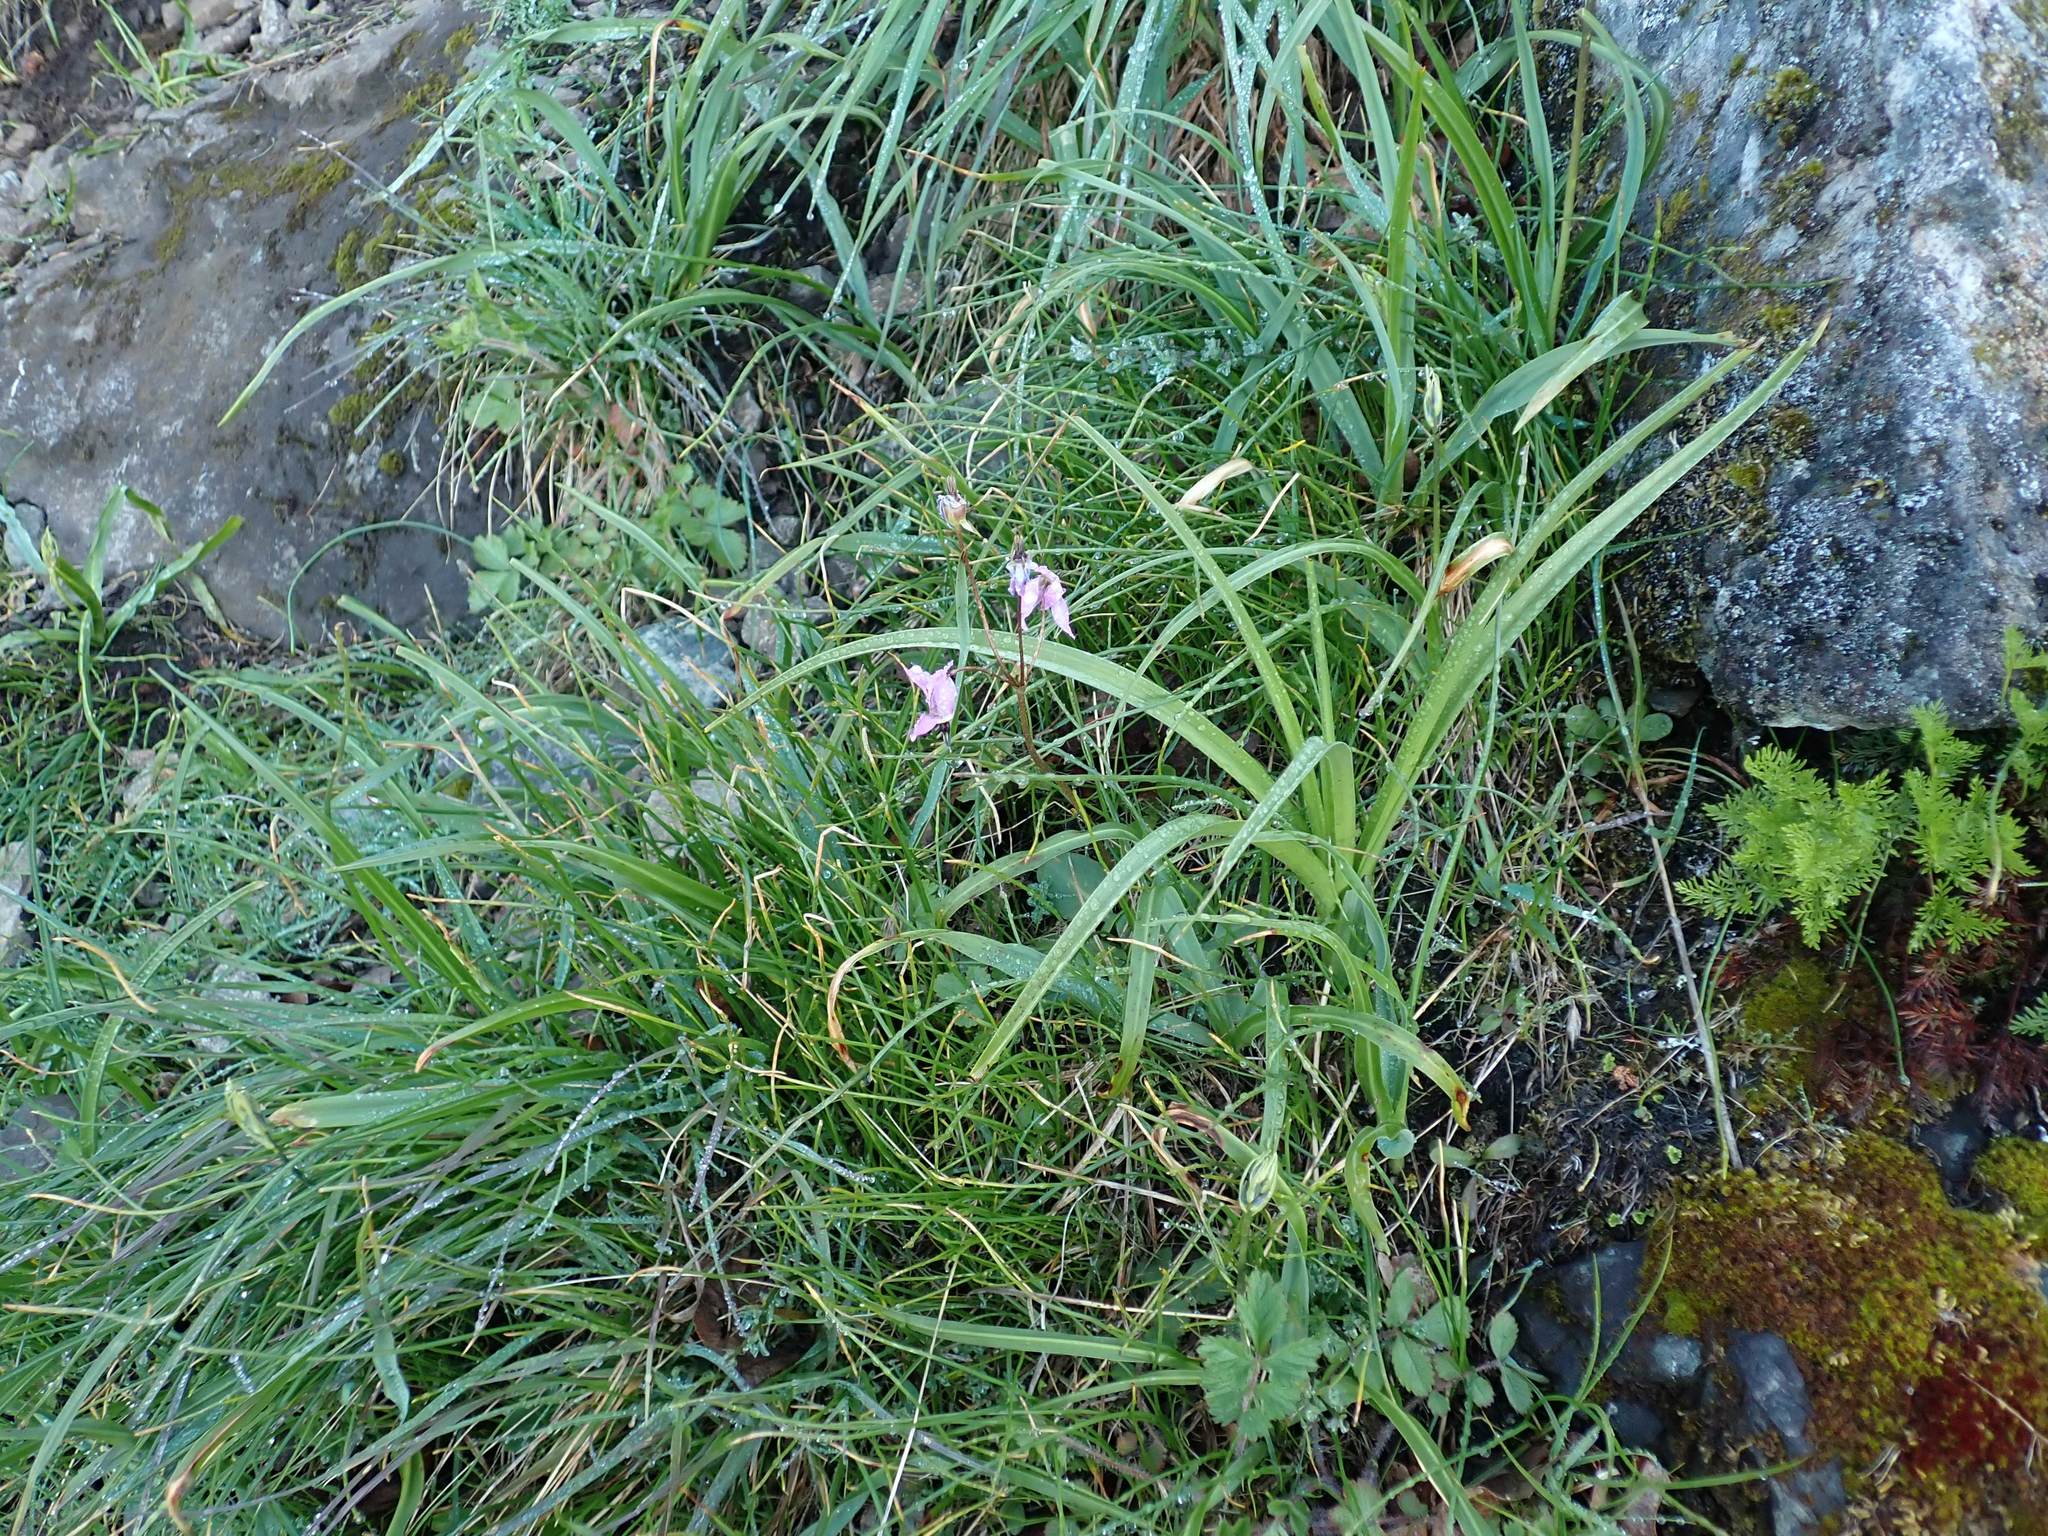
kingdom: Plantae
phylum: Tracheophyta
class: Magnoliopsida
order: Ericales
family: Primulaceae
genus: Dodecatheon
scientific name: Dodecatheon hendersonii
